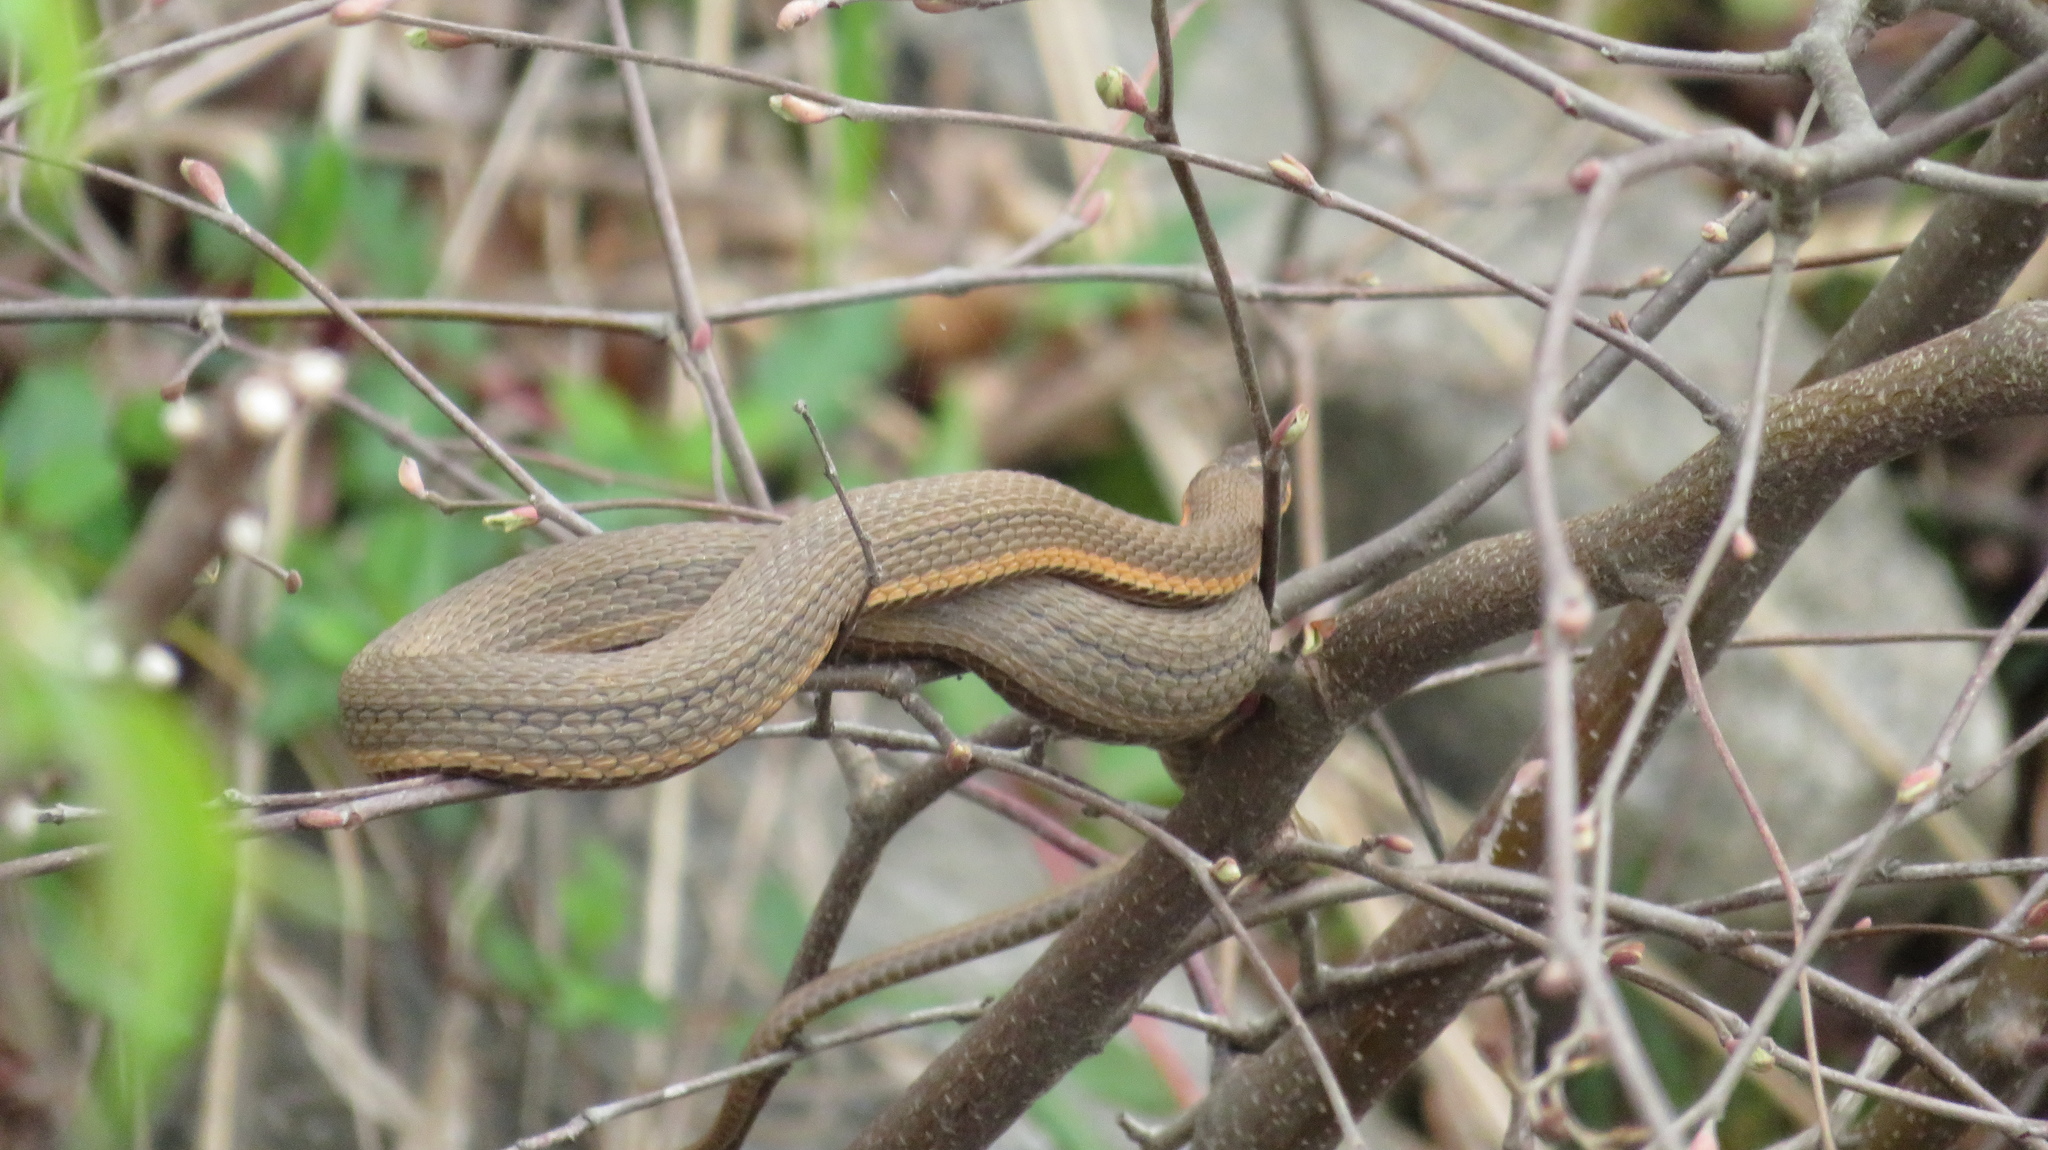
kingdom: Animalia
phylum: Chordata
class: Squamata
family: Colubridae
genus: Regina
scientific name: Regina septemvittata
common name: Queen snake
